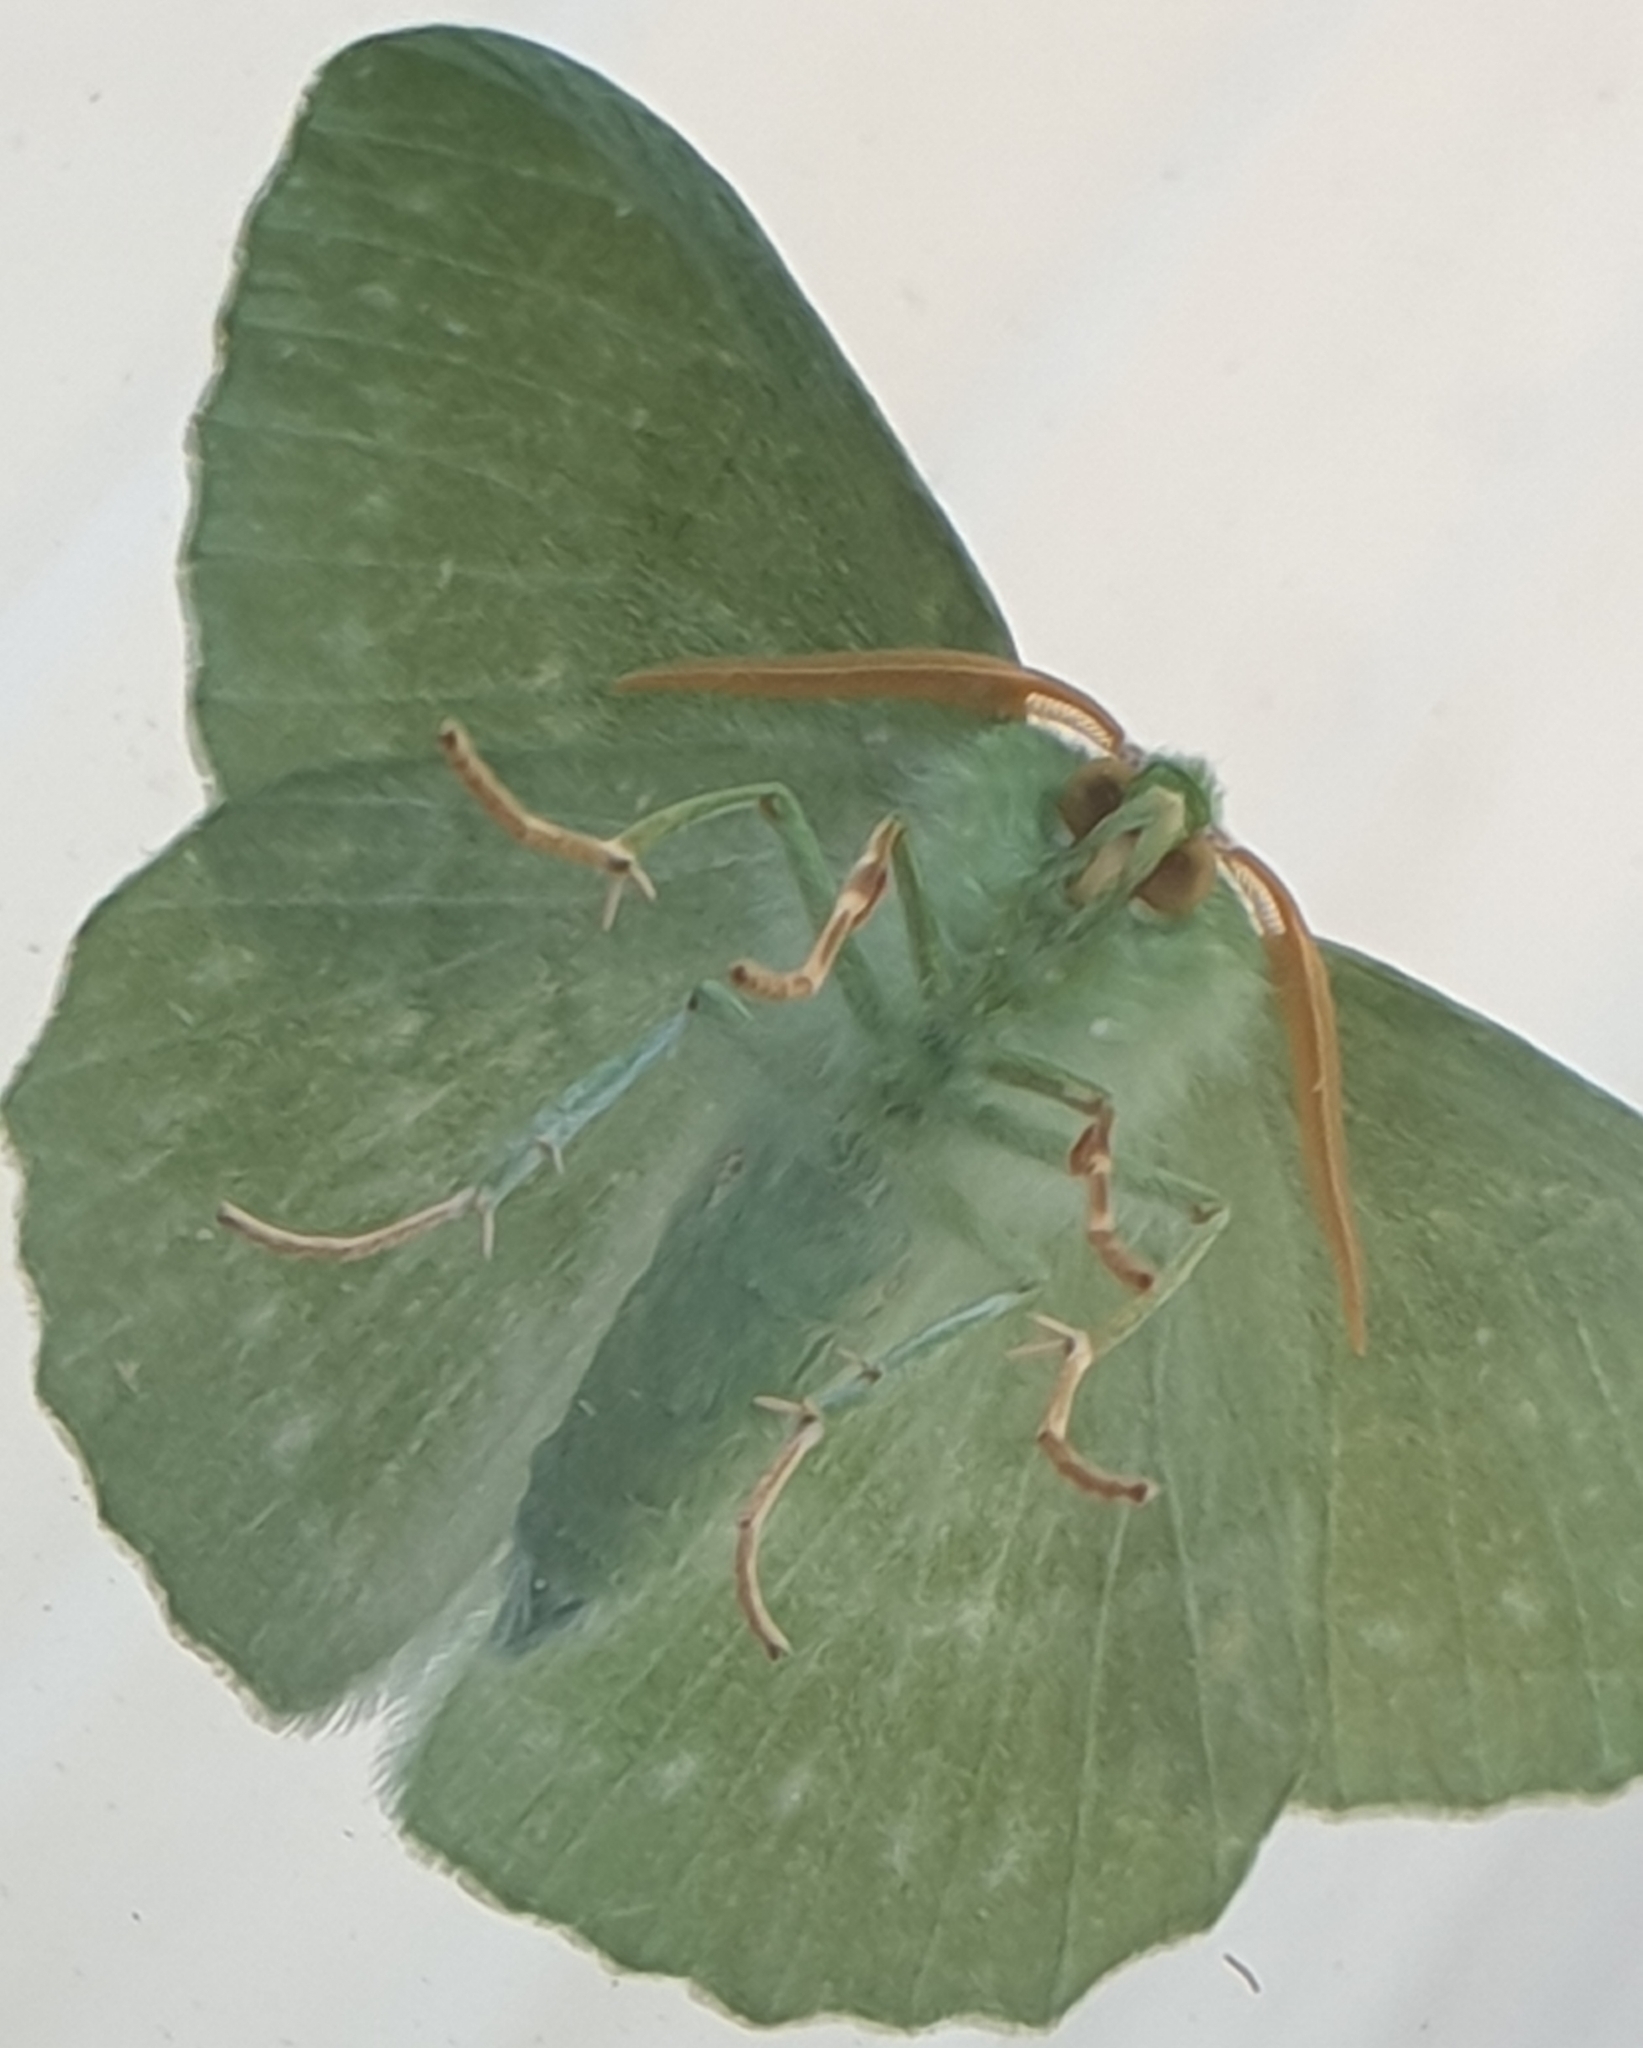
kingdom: Animalia
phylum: Arthropoda
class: Insecta
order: Lepidoptera
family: Geometridae
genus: Geometra
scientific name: Geometra papilionaria
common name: Large emerald
